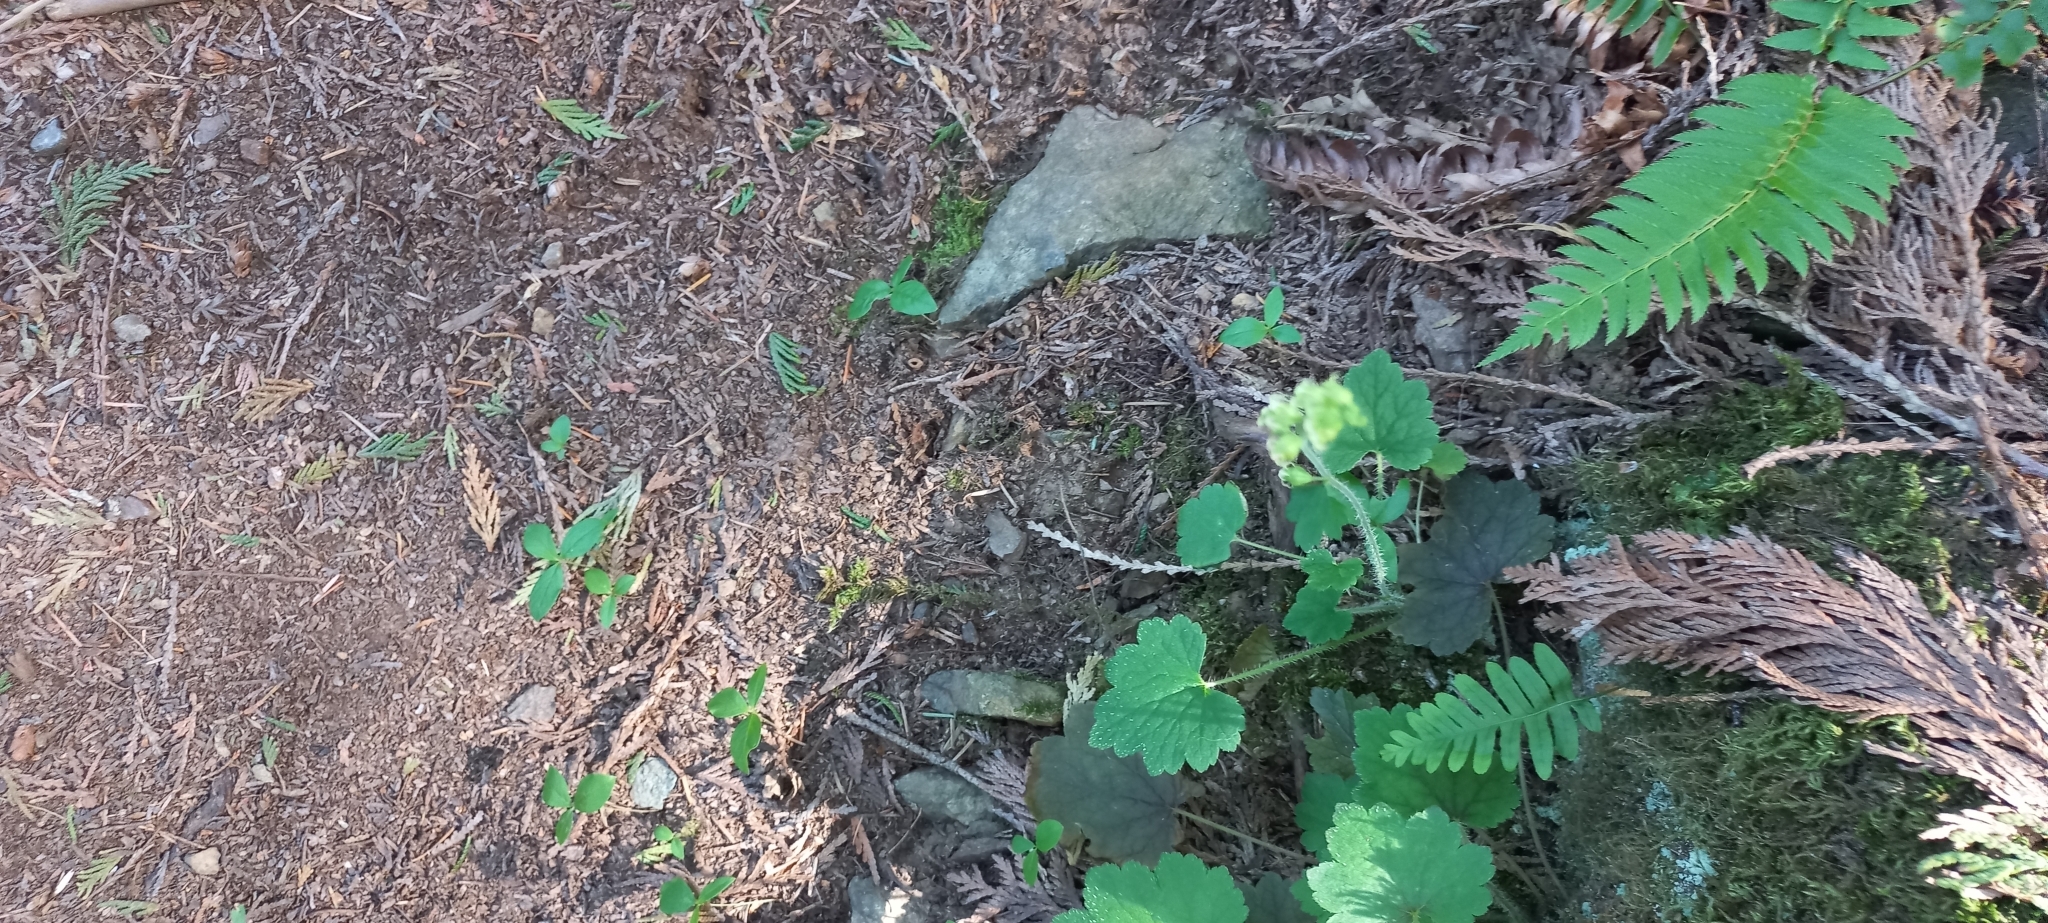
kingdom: Plantae
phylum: Tracheophyta
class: Magnoliopsida
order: Saxifragales
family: Saxifragaceae
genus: Tellima
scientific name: Tellima grandiflora
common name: Fringecups
